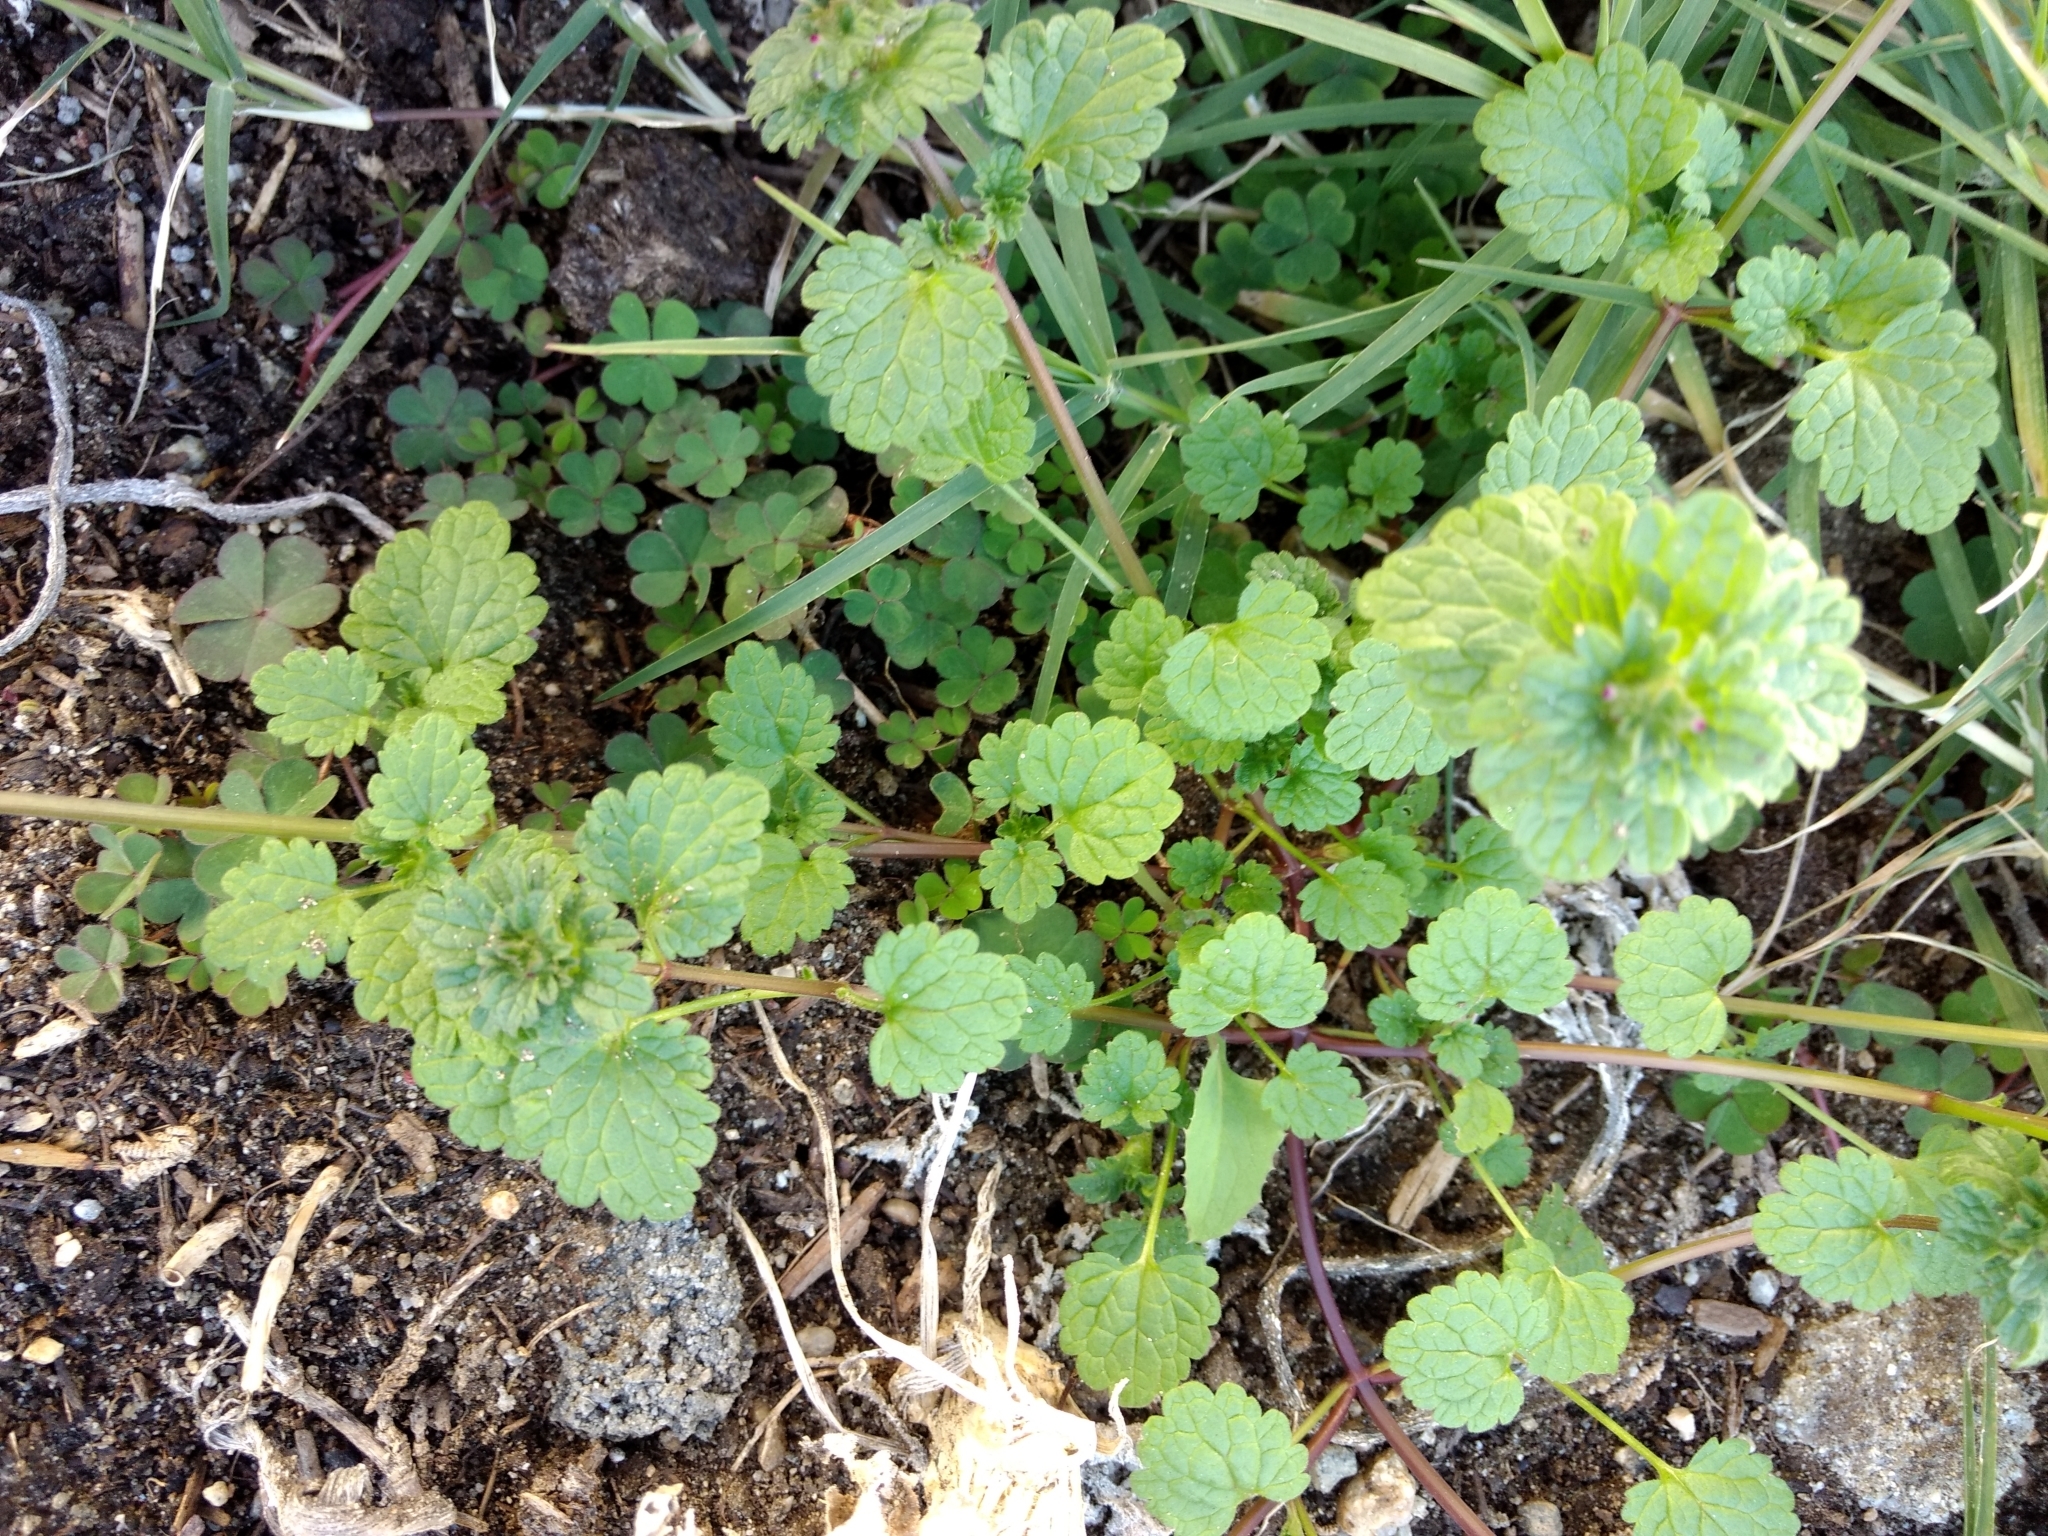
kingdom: Plantae
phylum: Tracheophyta
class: Magnoliopsida
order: Lamiales
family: Lamiaceae
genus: Lamium
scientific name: Lamium amplexicaule
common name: Henbit dead-nettle
